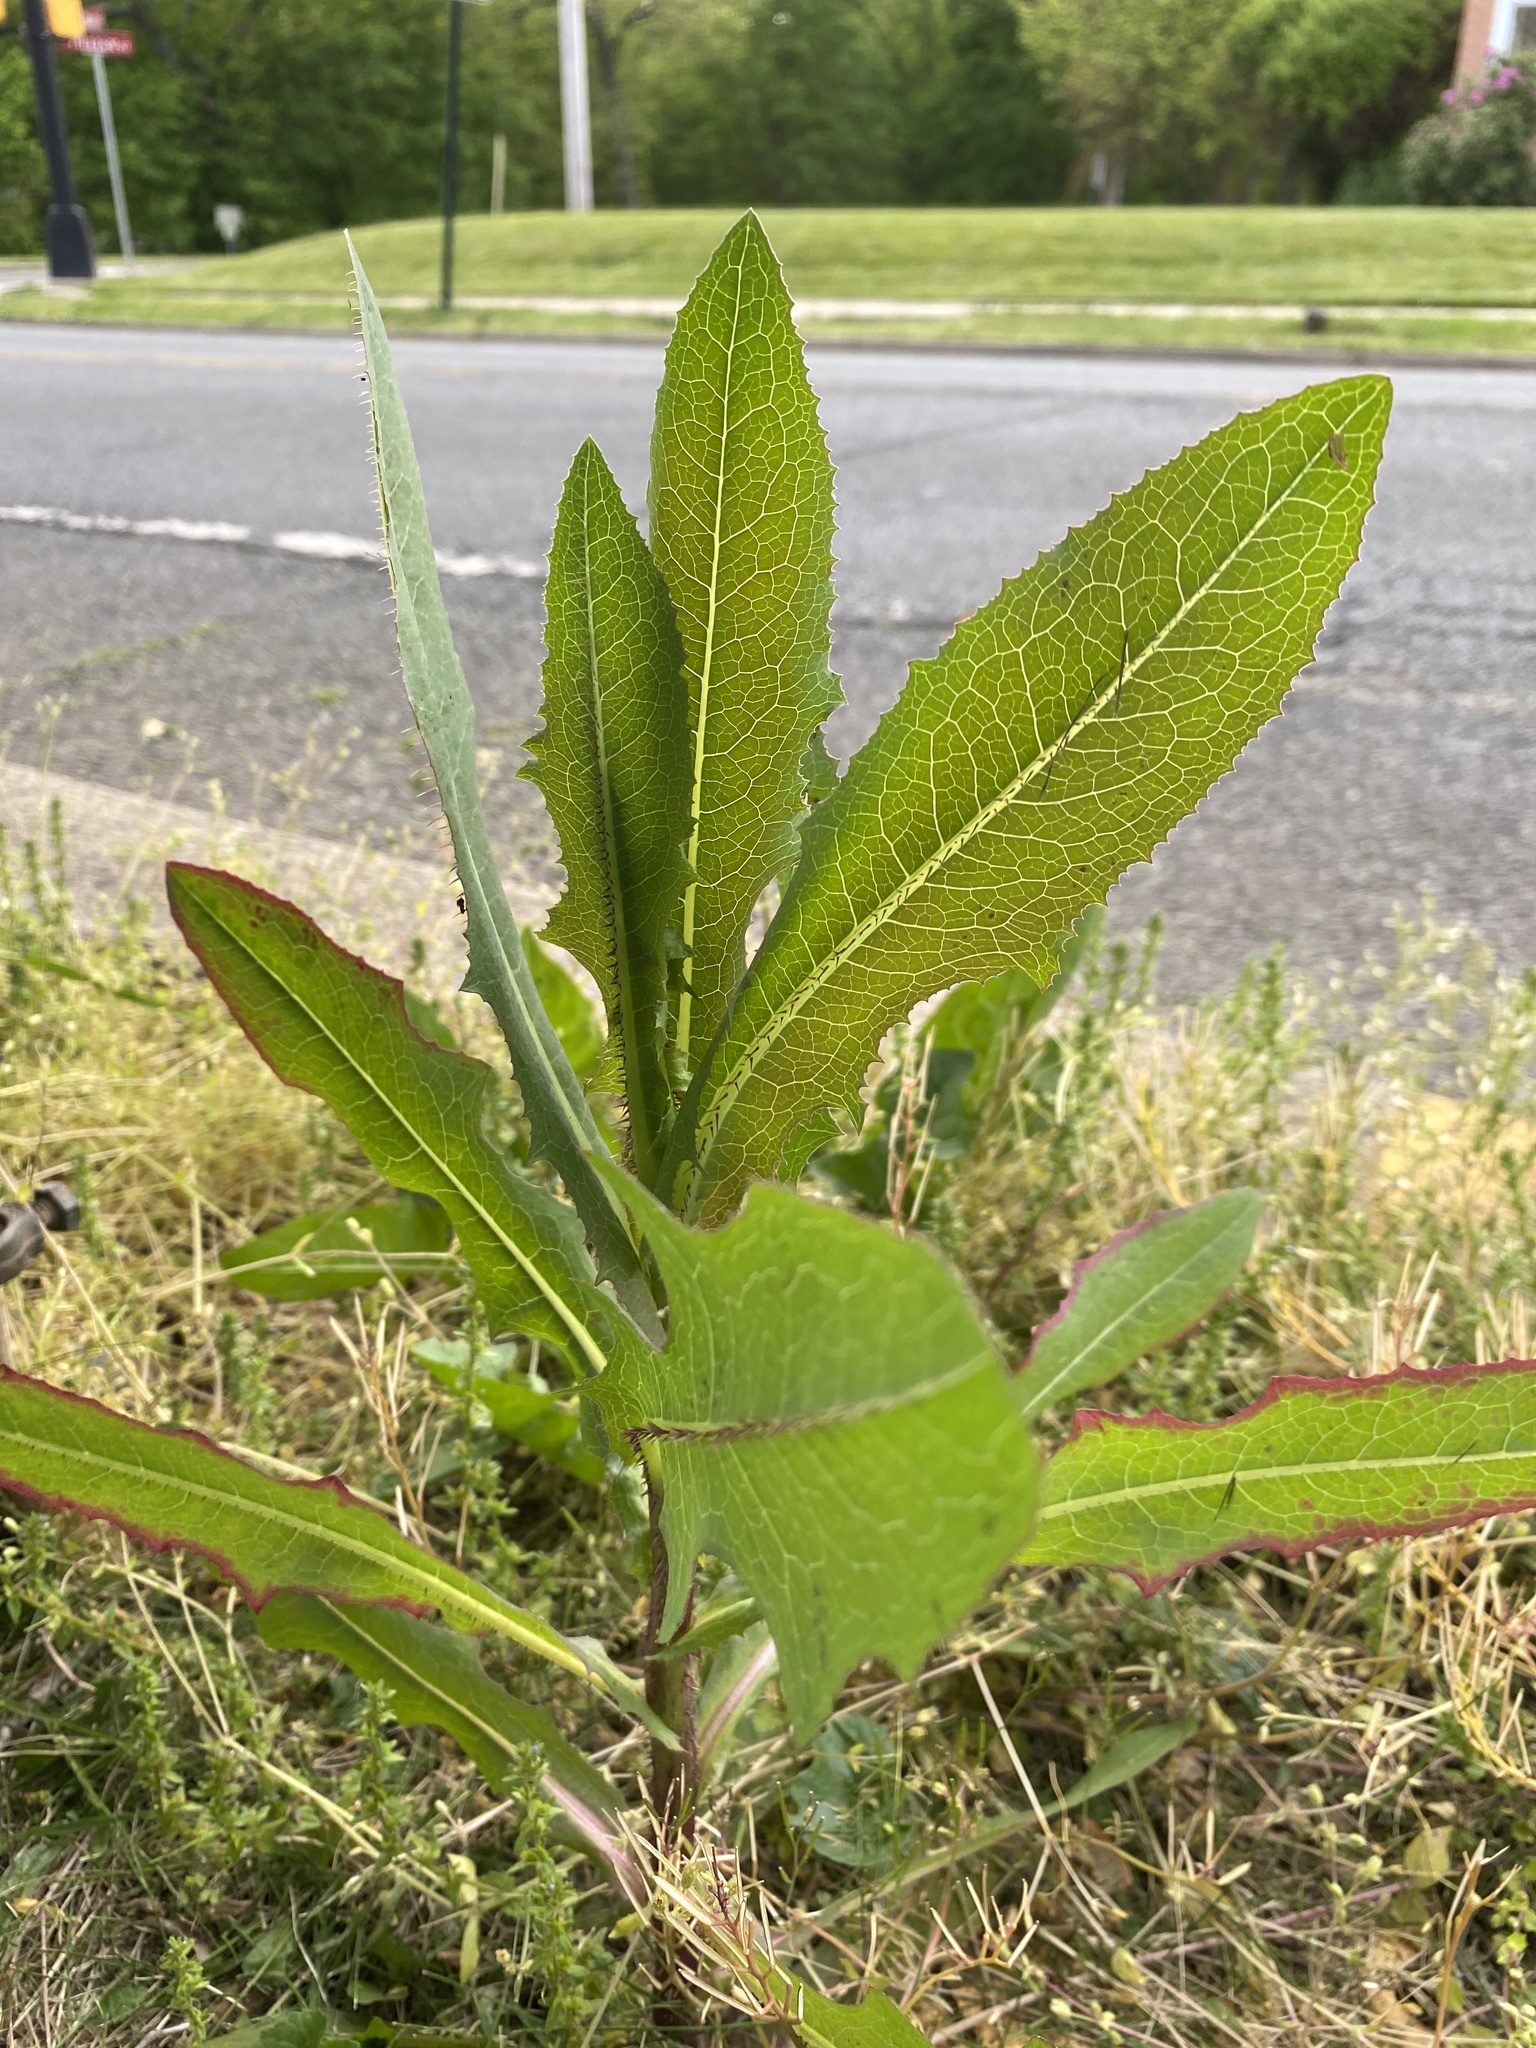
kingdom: Plantae
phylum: Tracheophyta
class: Magnoliopsida
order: Asterales
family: Asteraceae
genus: Lactuca
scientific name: Lactuca serriola
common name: Prickly lettuce
